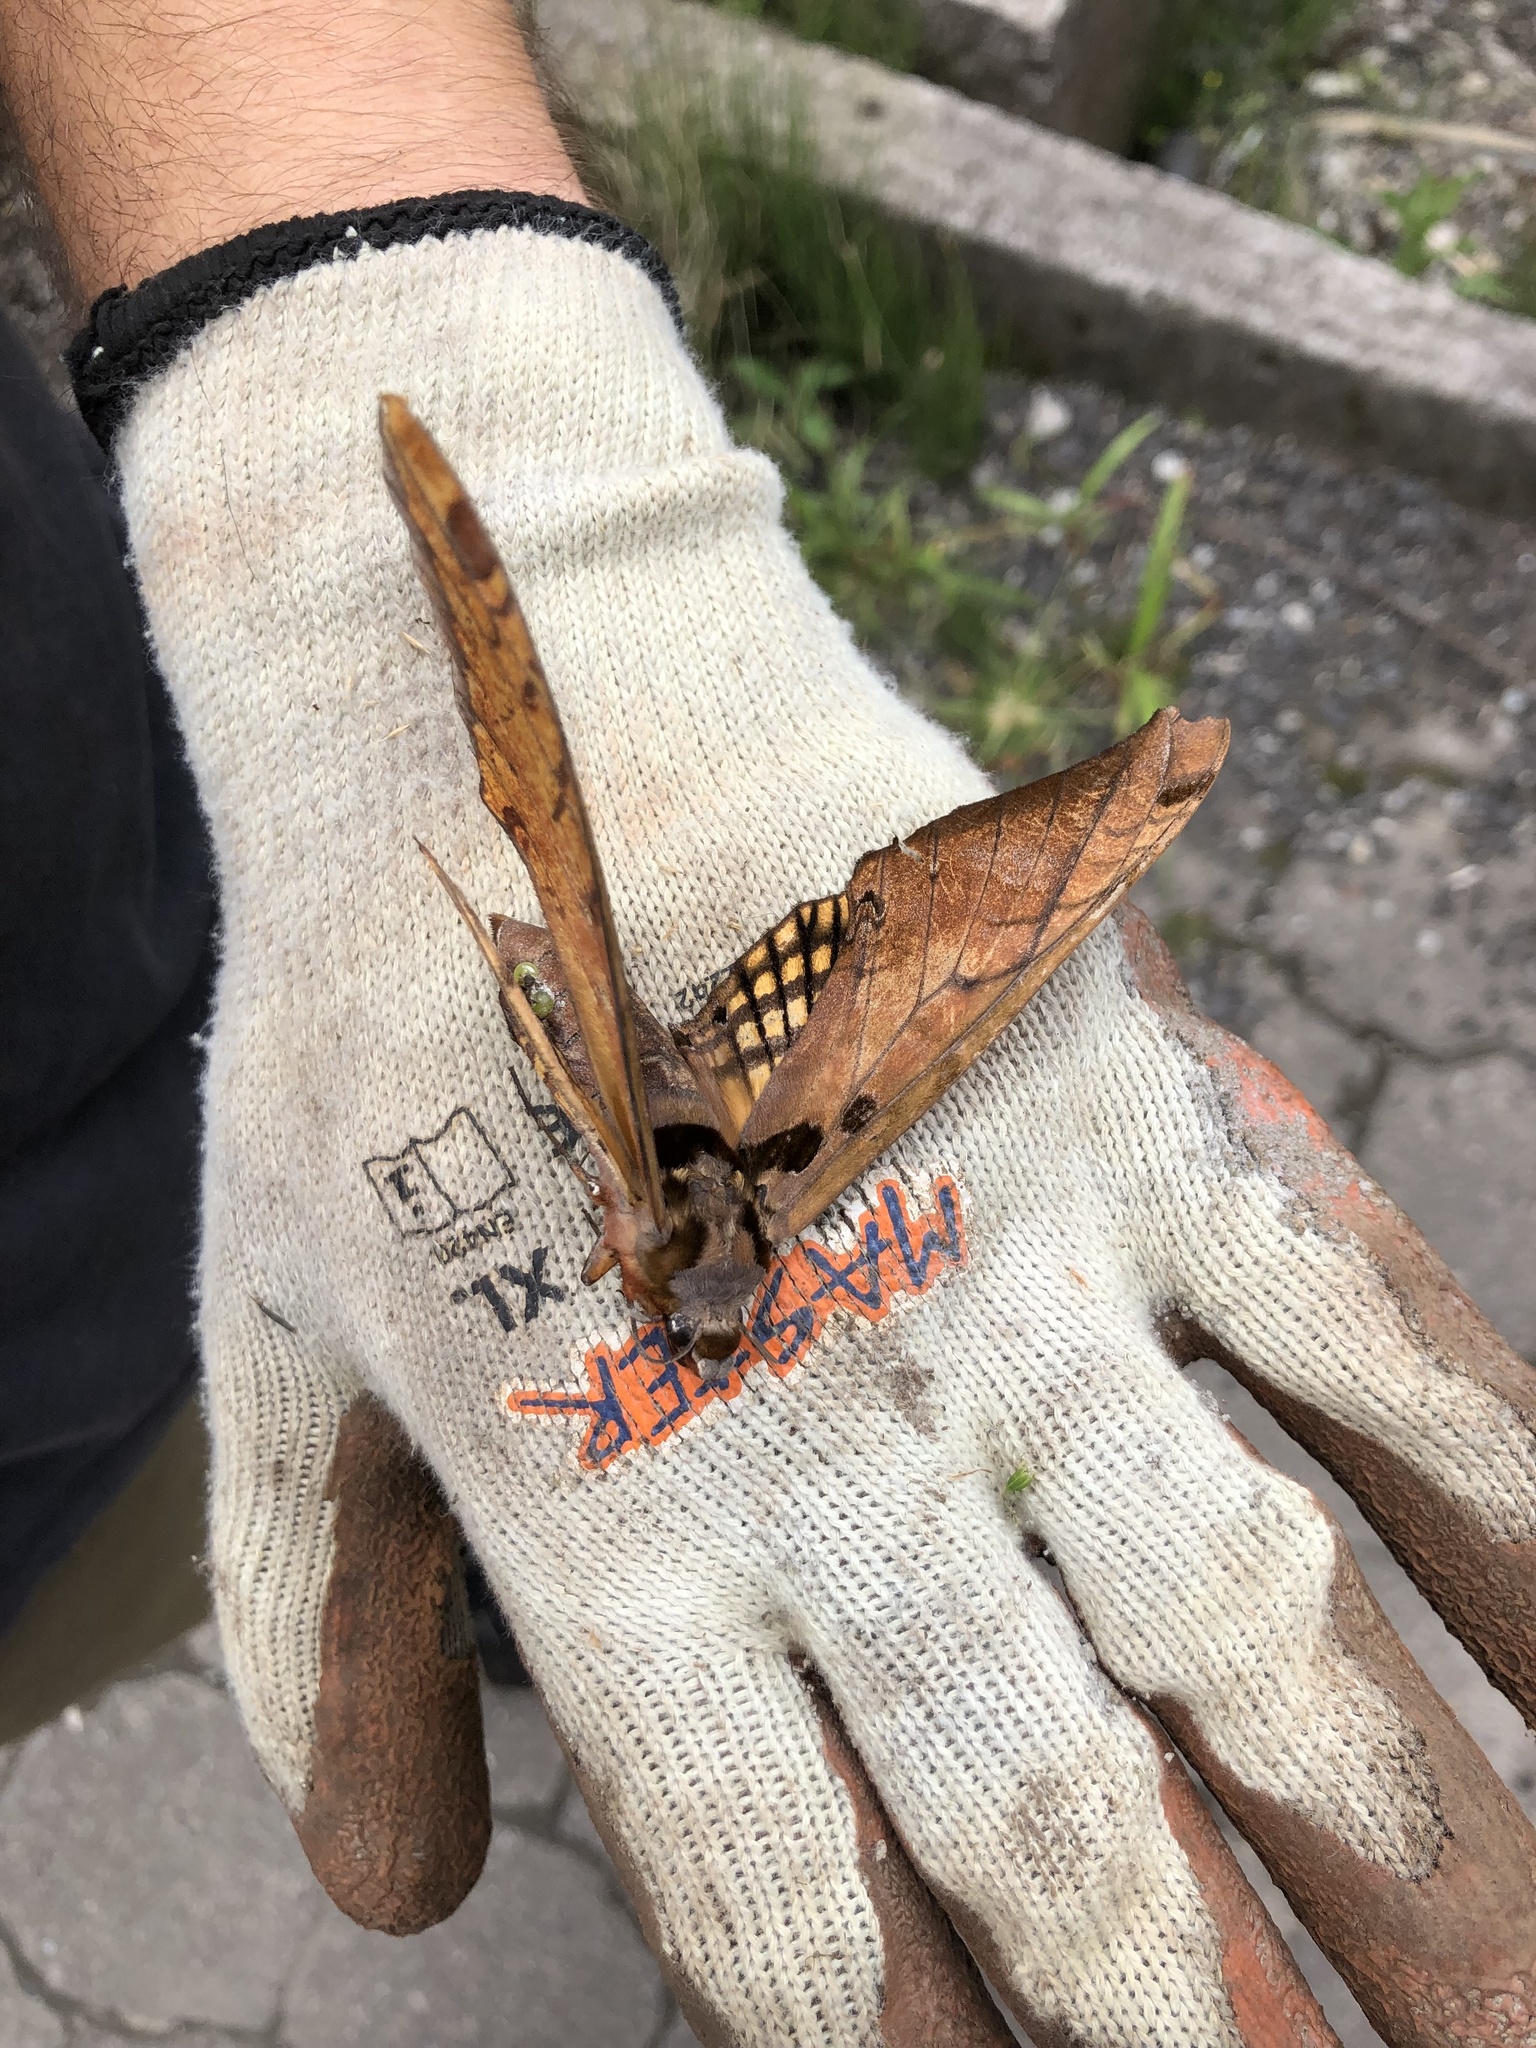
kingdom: Animalia
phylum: Arthropoda
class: Insecta
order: Lepidoptera
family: Sphingidae
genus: Adhemarius
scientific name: Adhemarius tigrina
